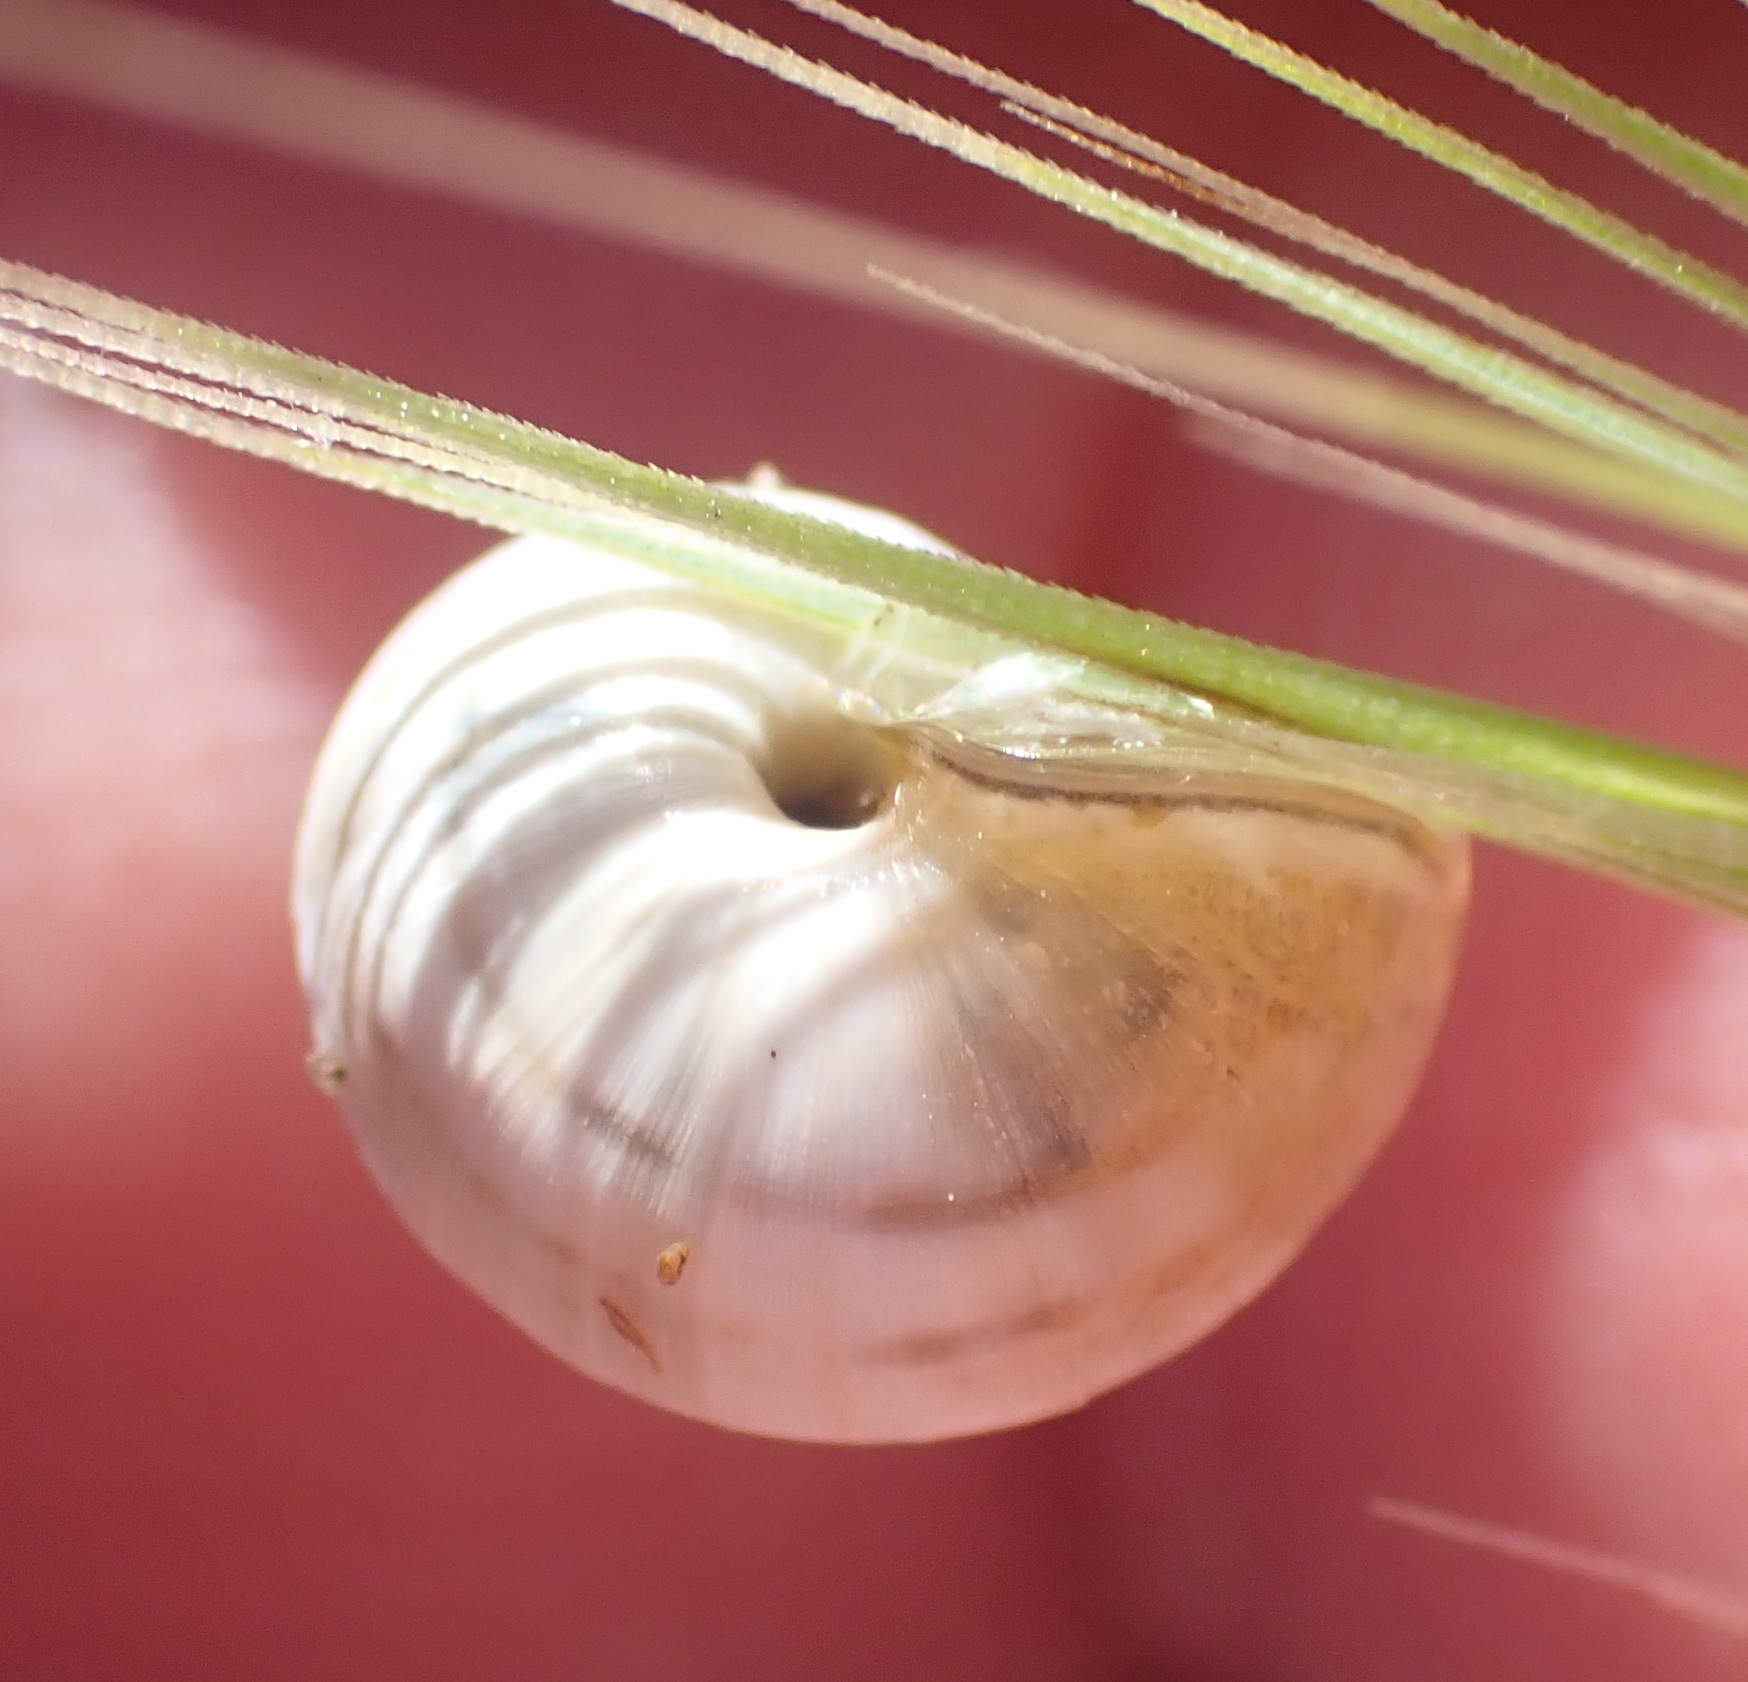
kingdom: Animalia
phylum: Mollusca
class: Gastropoda
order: Stylommatophora
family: Helicidae
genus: Theba
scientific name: Theba pisana
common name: White snail
